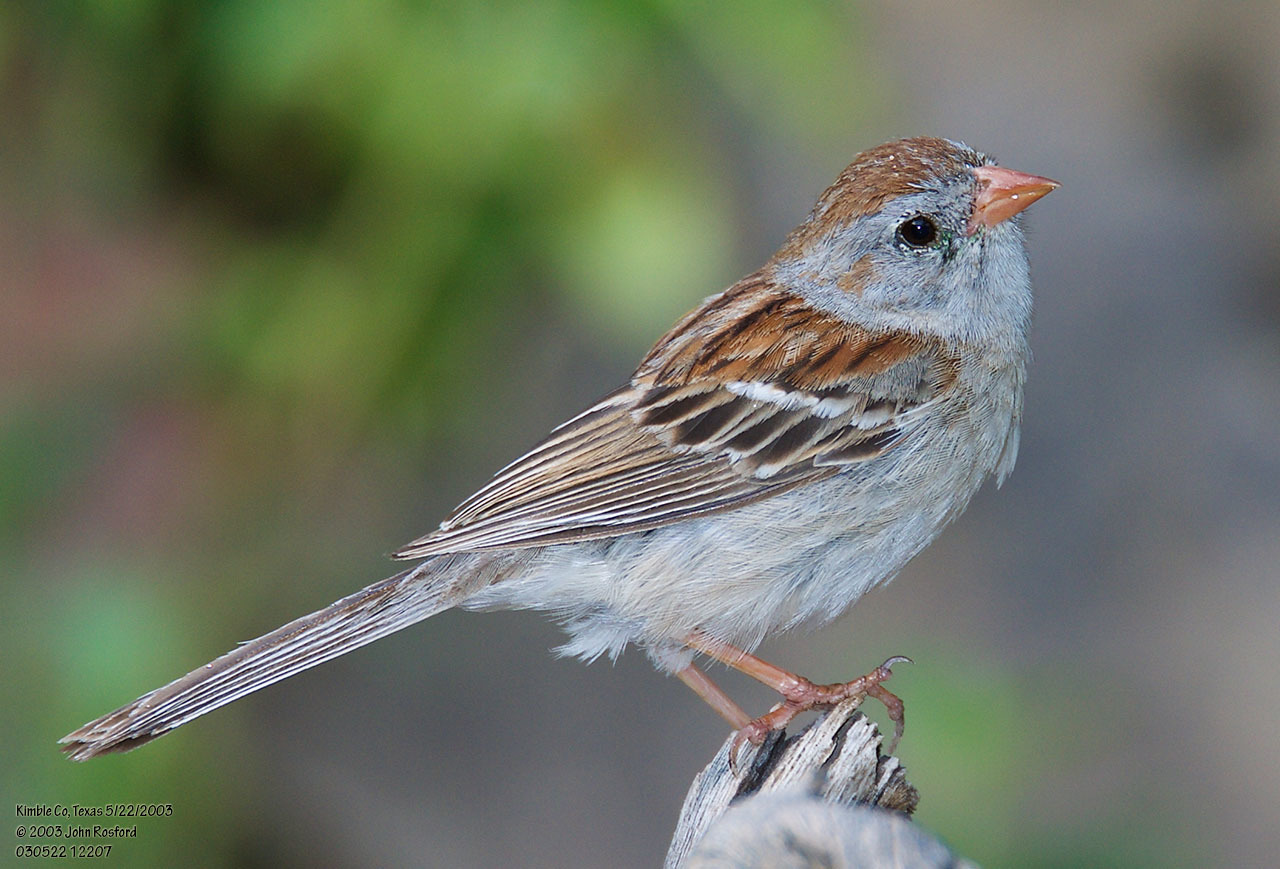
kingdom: Animalia
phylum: Chordata
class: Aves
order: Passeriformes
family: Passerellidae
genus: Spizella
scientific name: Spizella pusilla
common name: Field sparrow
